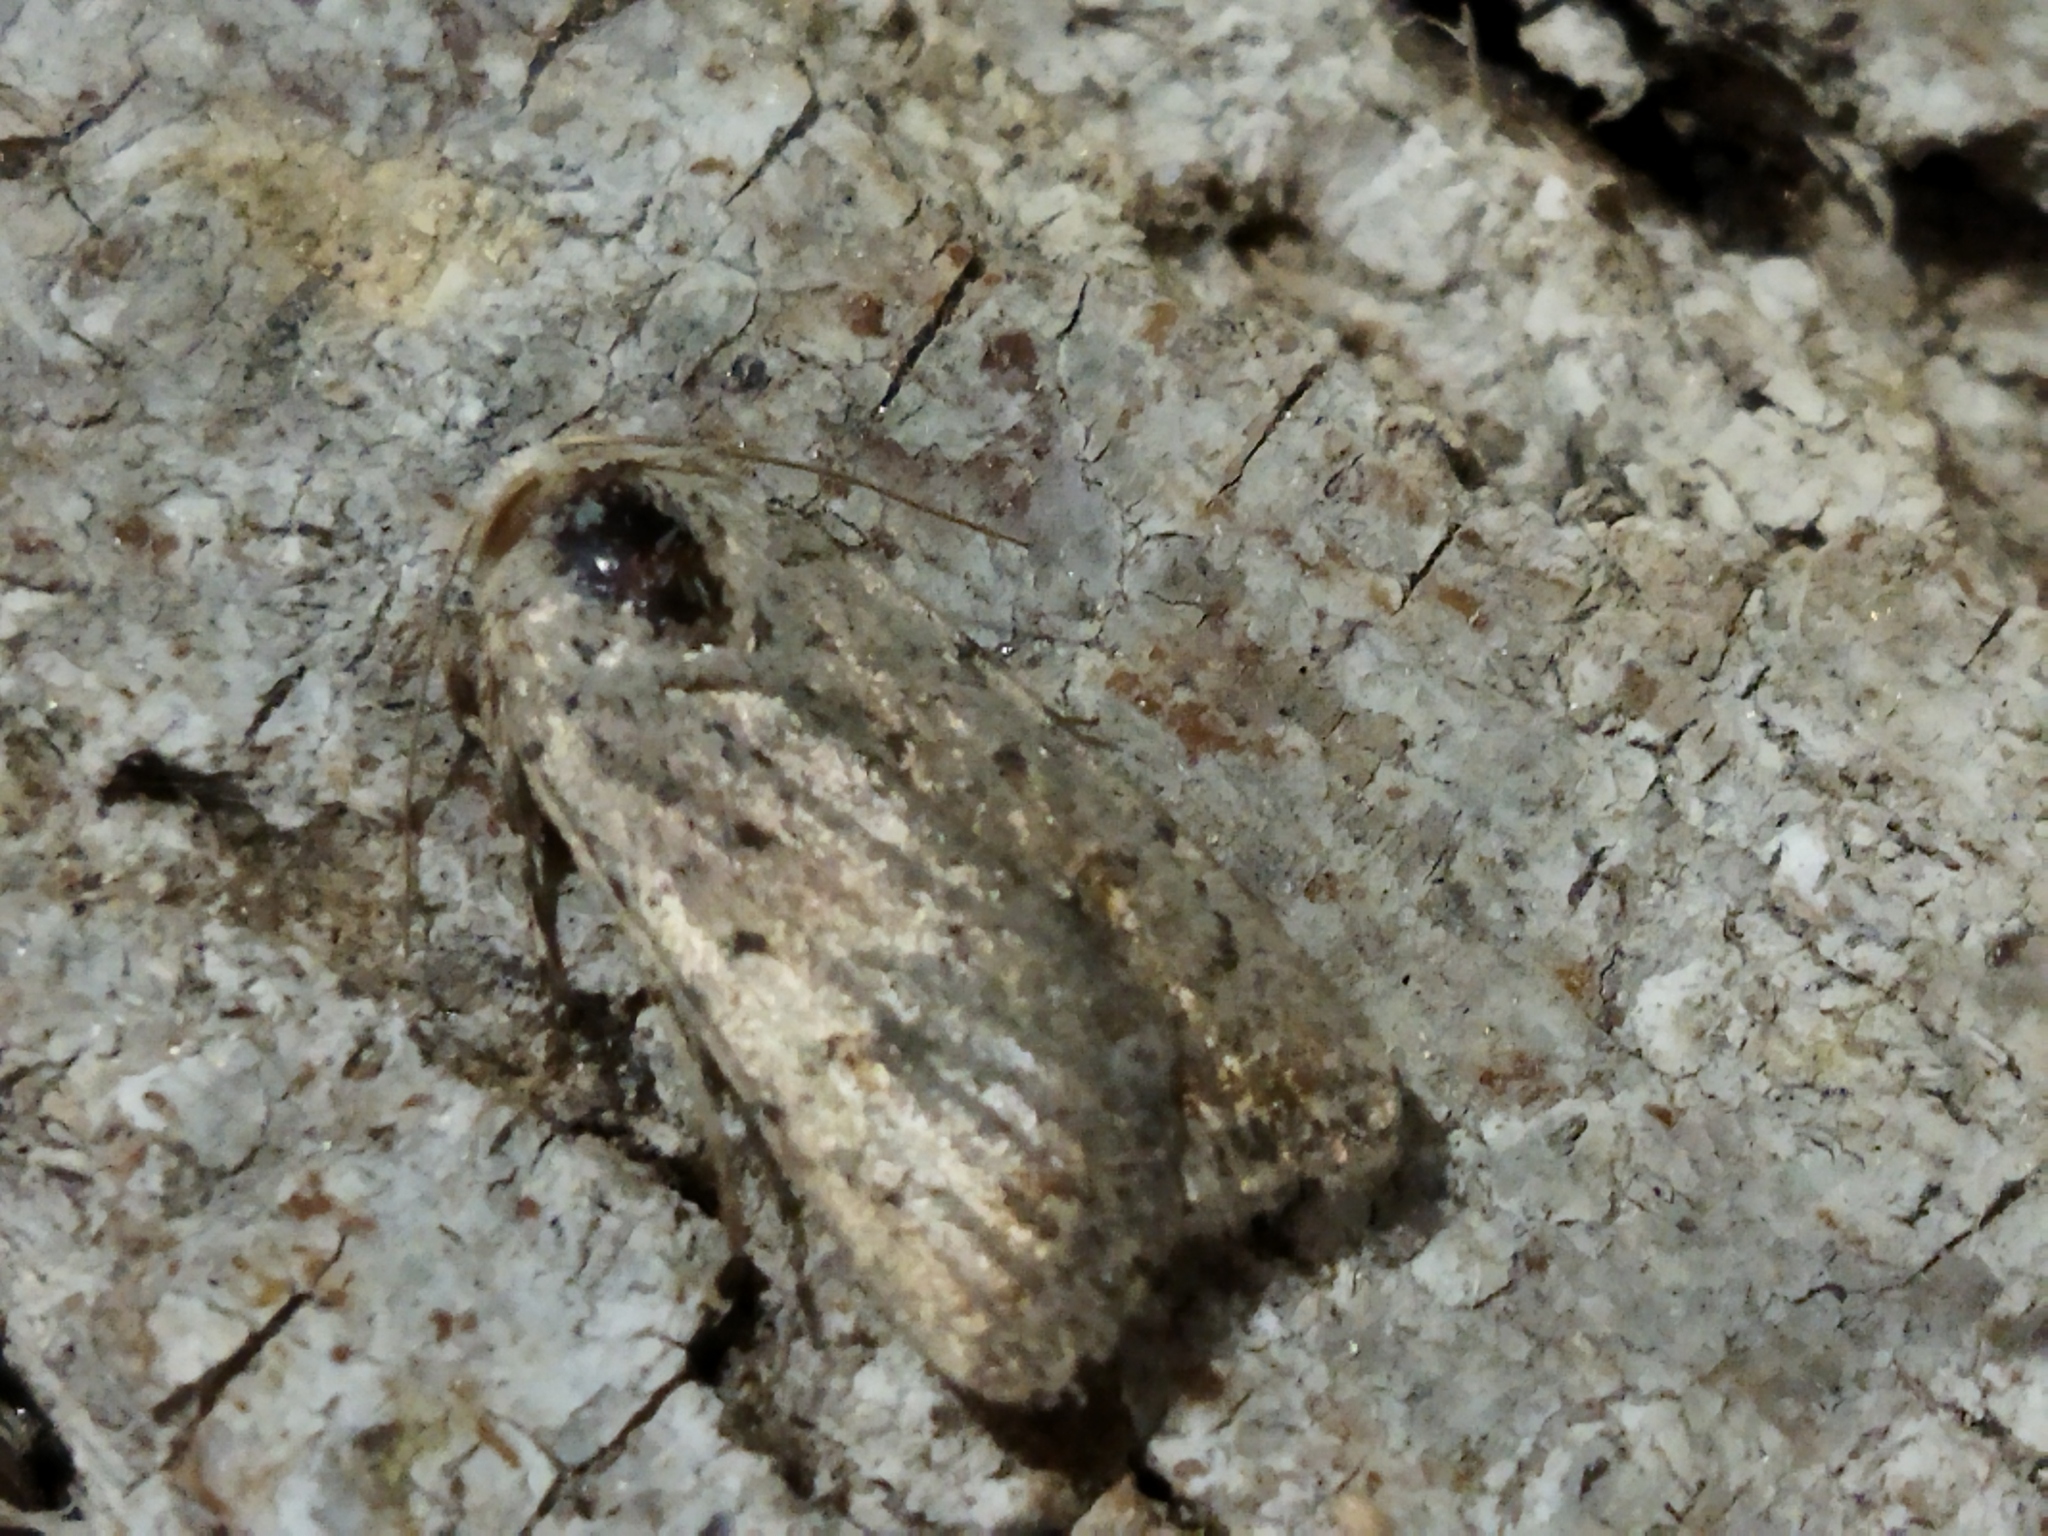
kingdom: Animalia
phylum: Arthropoda
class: Insecta
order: Lepidoptera
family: Noctuidae
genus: Caradrina
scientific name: Caradrina clavipalpis
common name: Pale mottled willow
